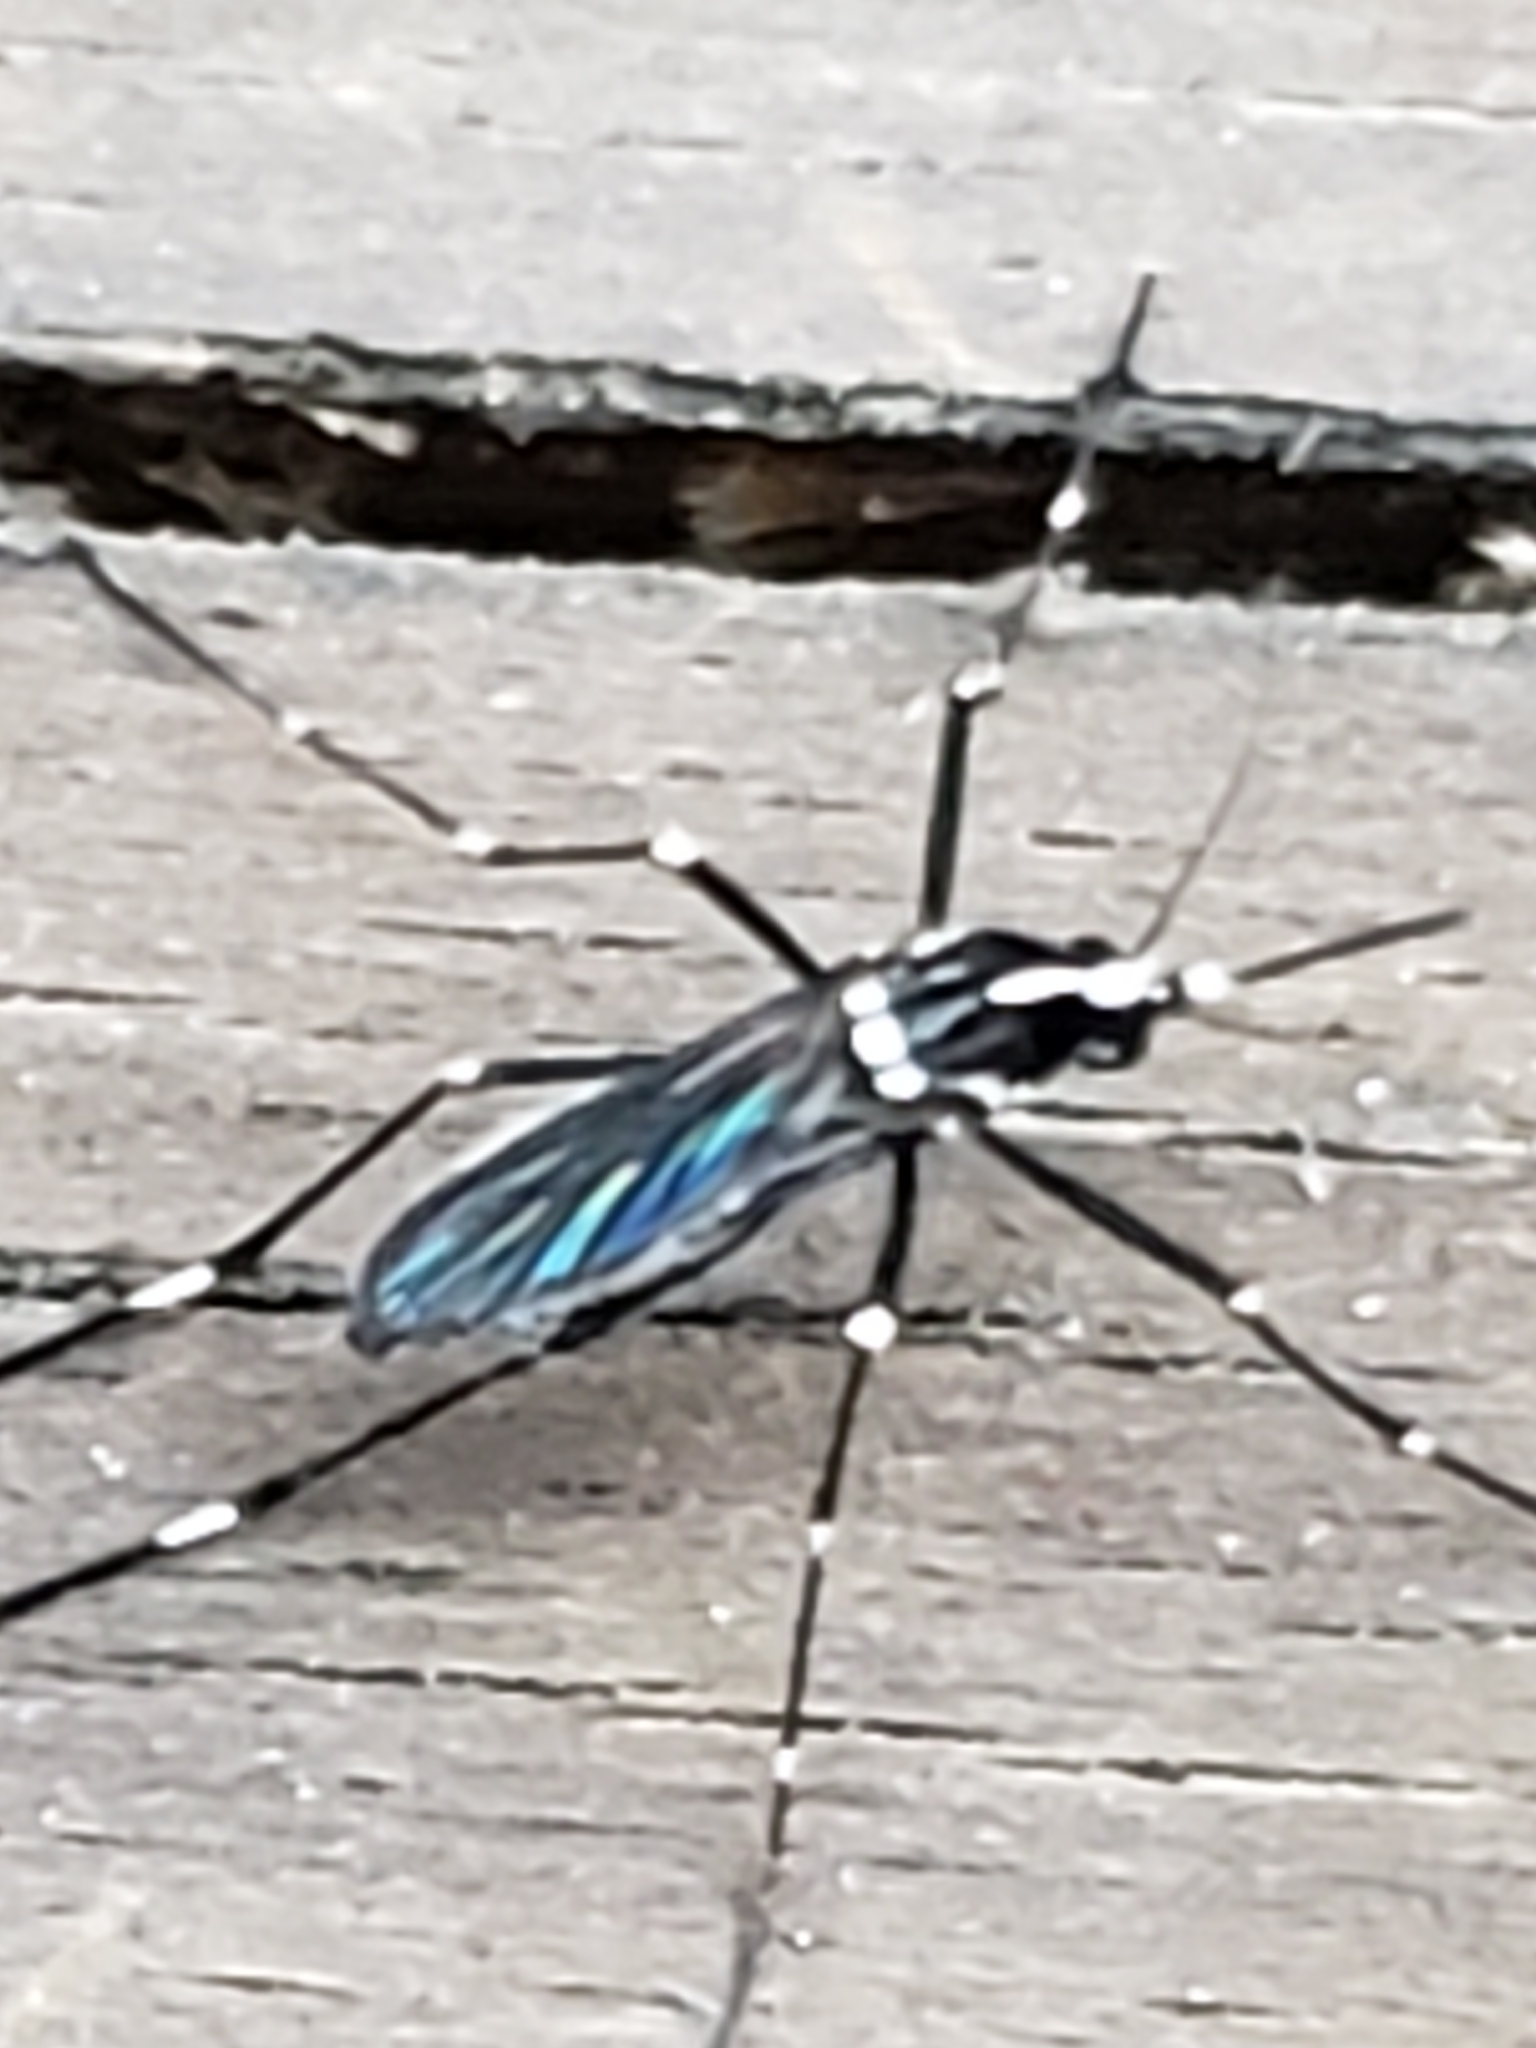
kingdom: Animalia
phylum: Arthropoda
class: Insecta
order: Diptera
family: Culicidae
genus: Aedes
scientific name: Aedes albopictus
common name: Tiger mosquito
